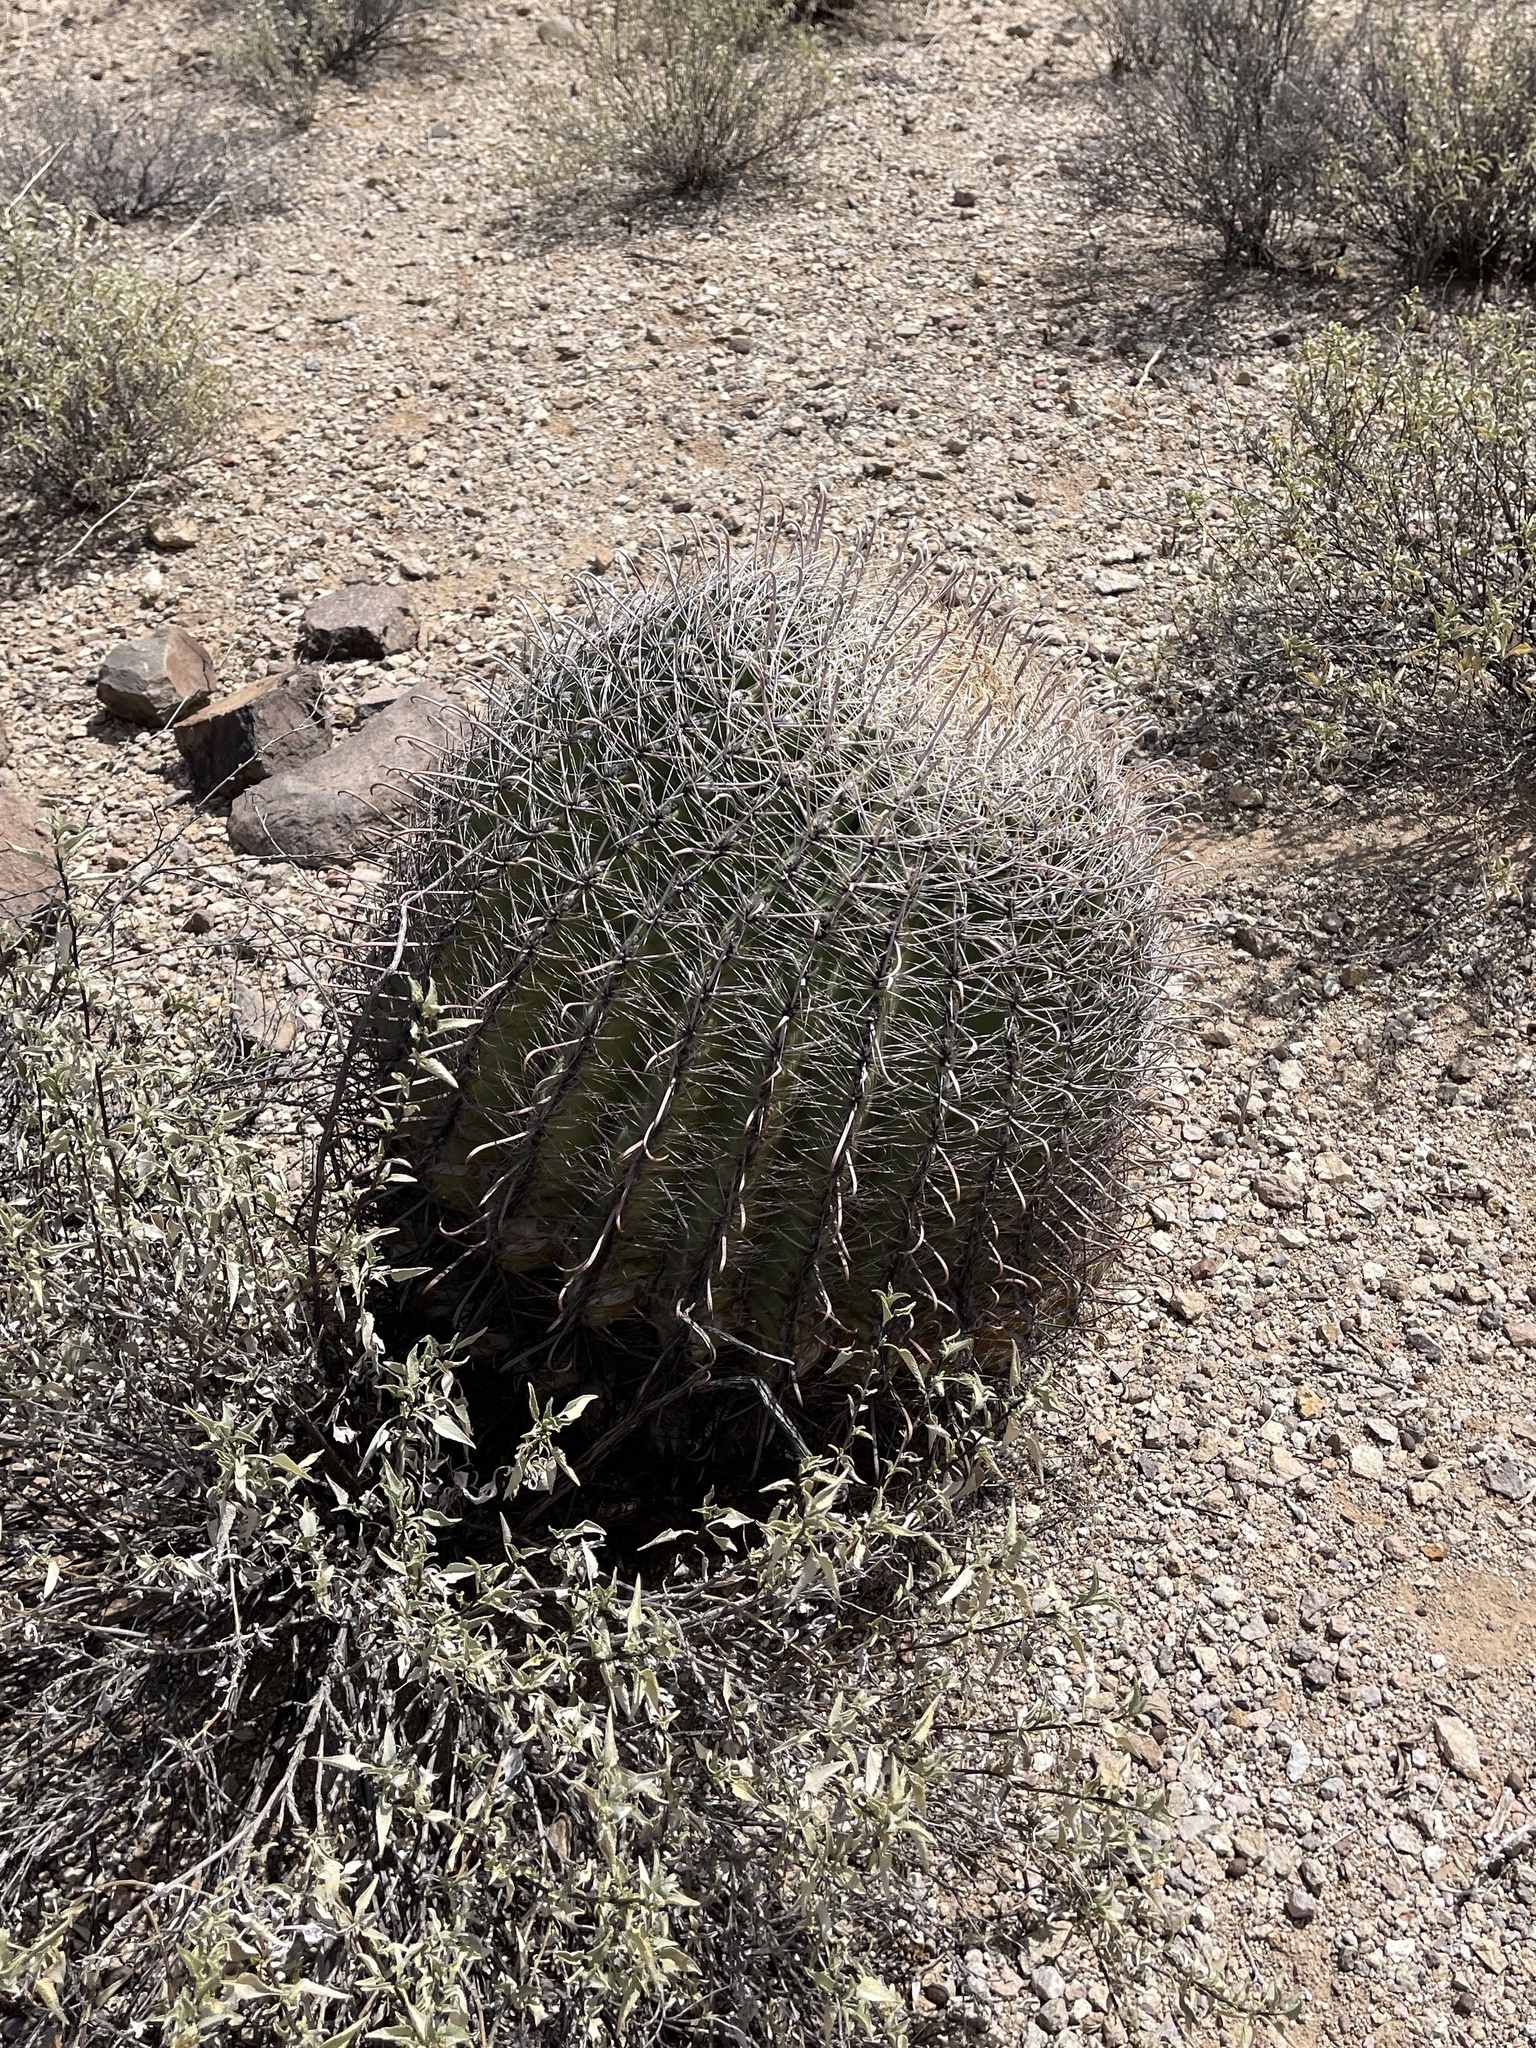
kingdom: Plantae
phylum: Tracheophyta
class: Magnoliopsida
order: Caryophyllales
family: Cactaceae
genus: Ferocactus
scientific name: Ferocactus wislizeni
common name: Candy barrel cactus
